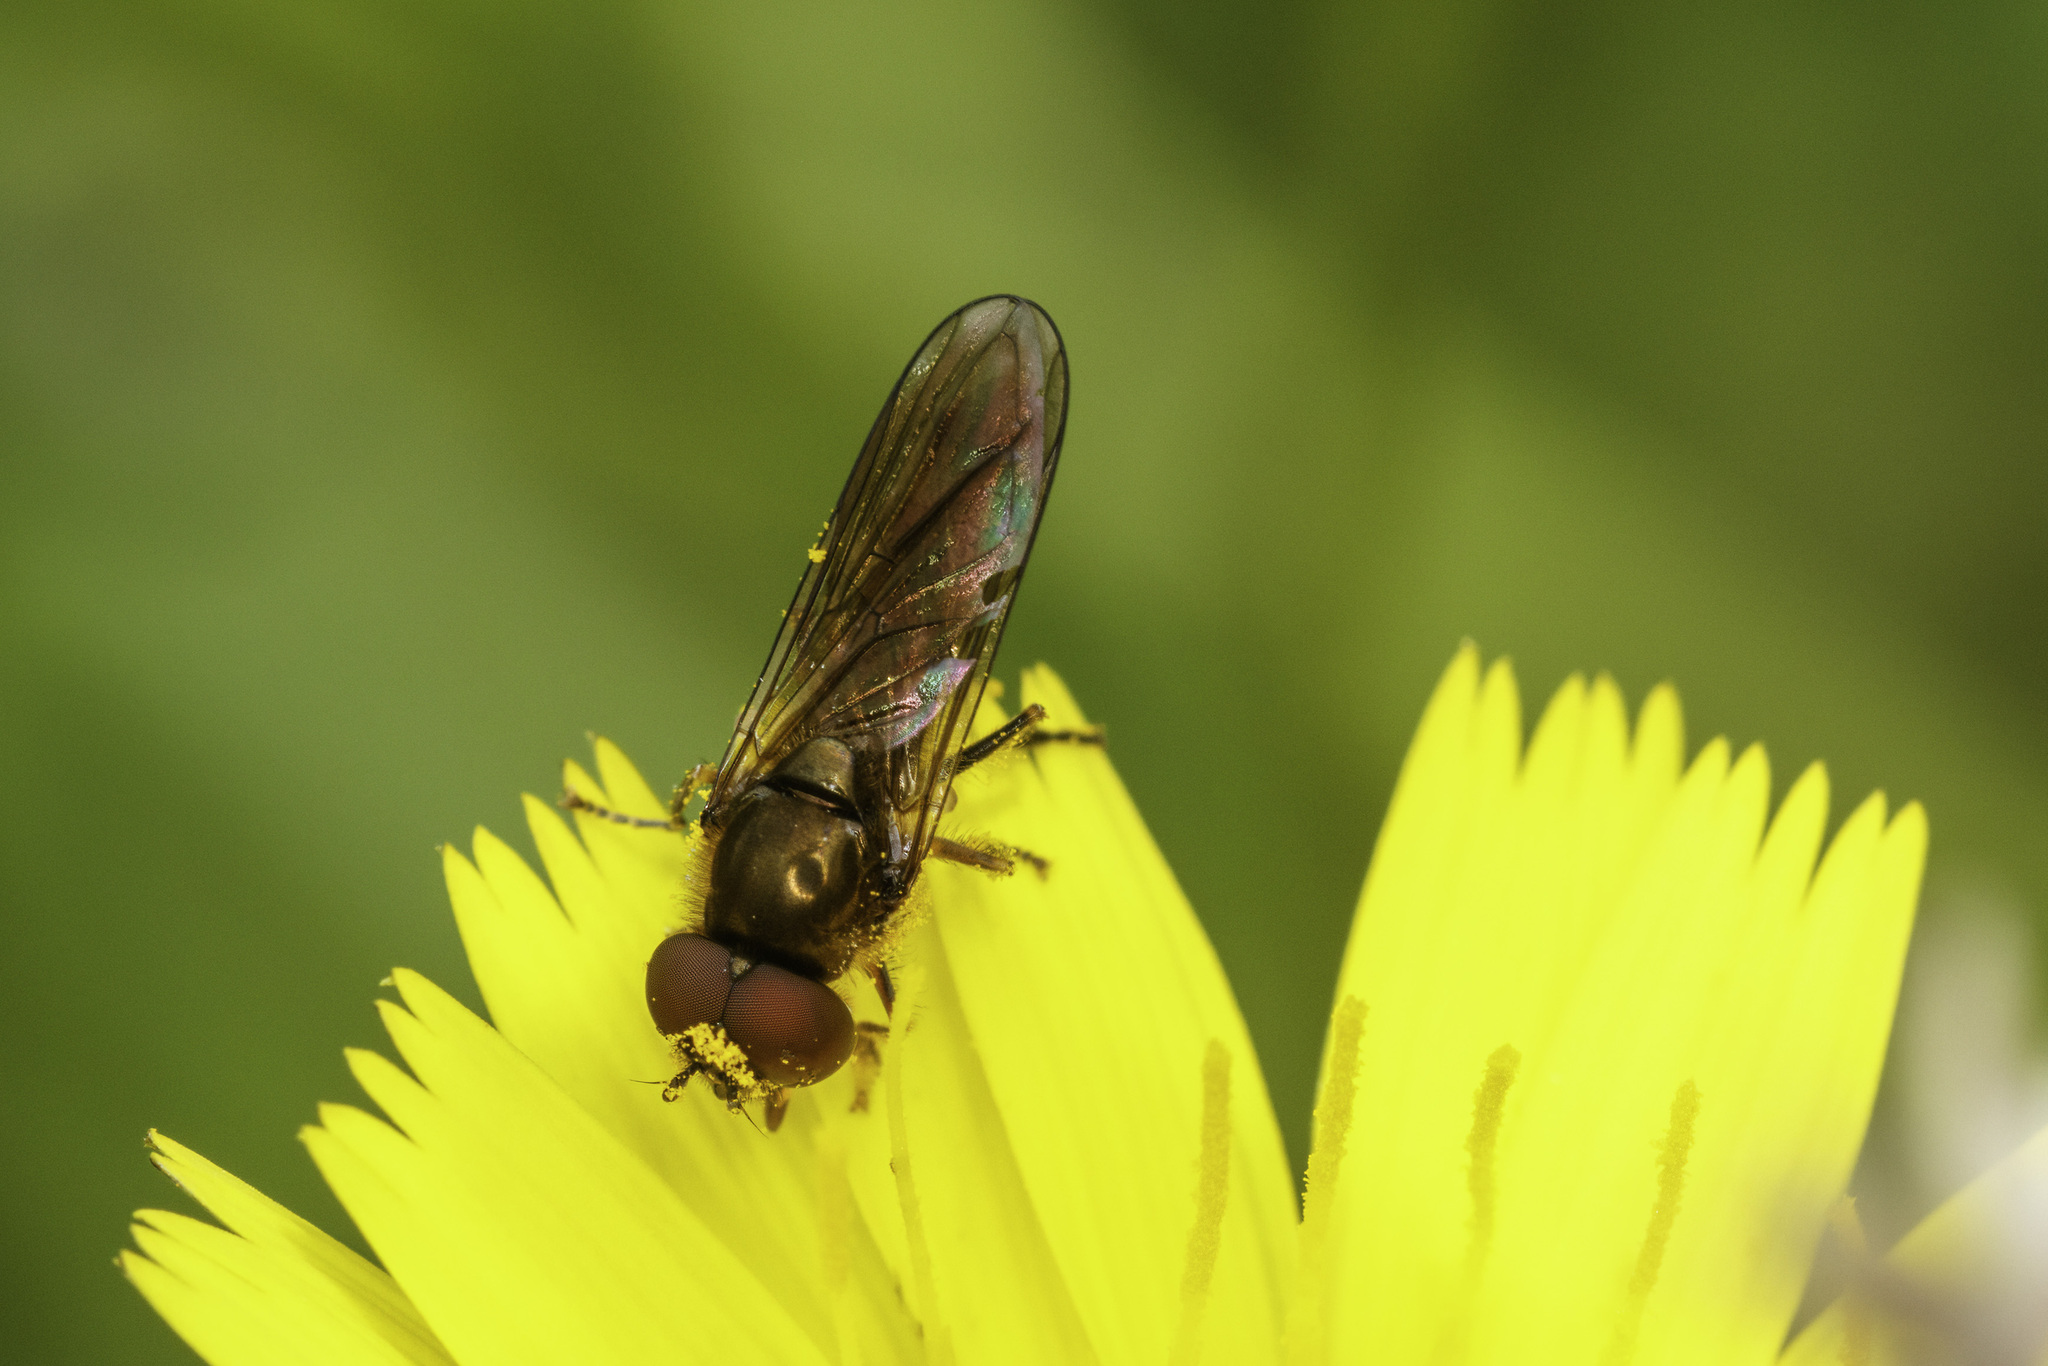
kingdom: Animalia
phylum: Arthropoda
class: Insecta
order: Diptera
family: Syrphidae
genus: Platycheirus
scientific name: Platycheirus
